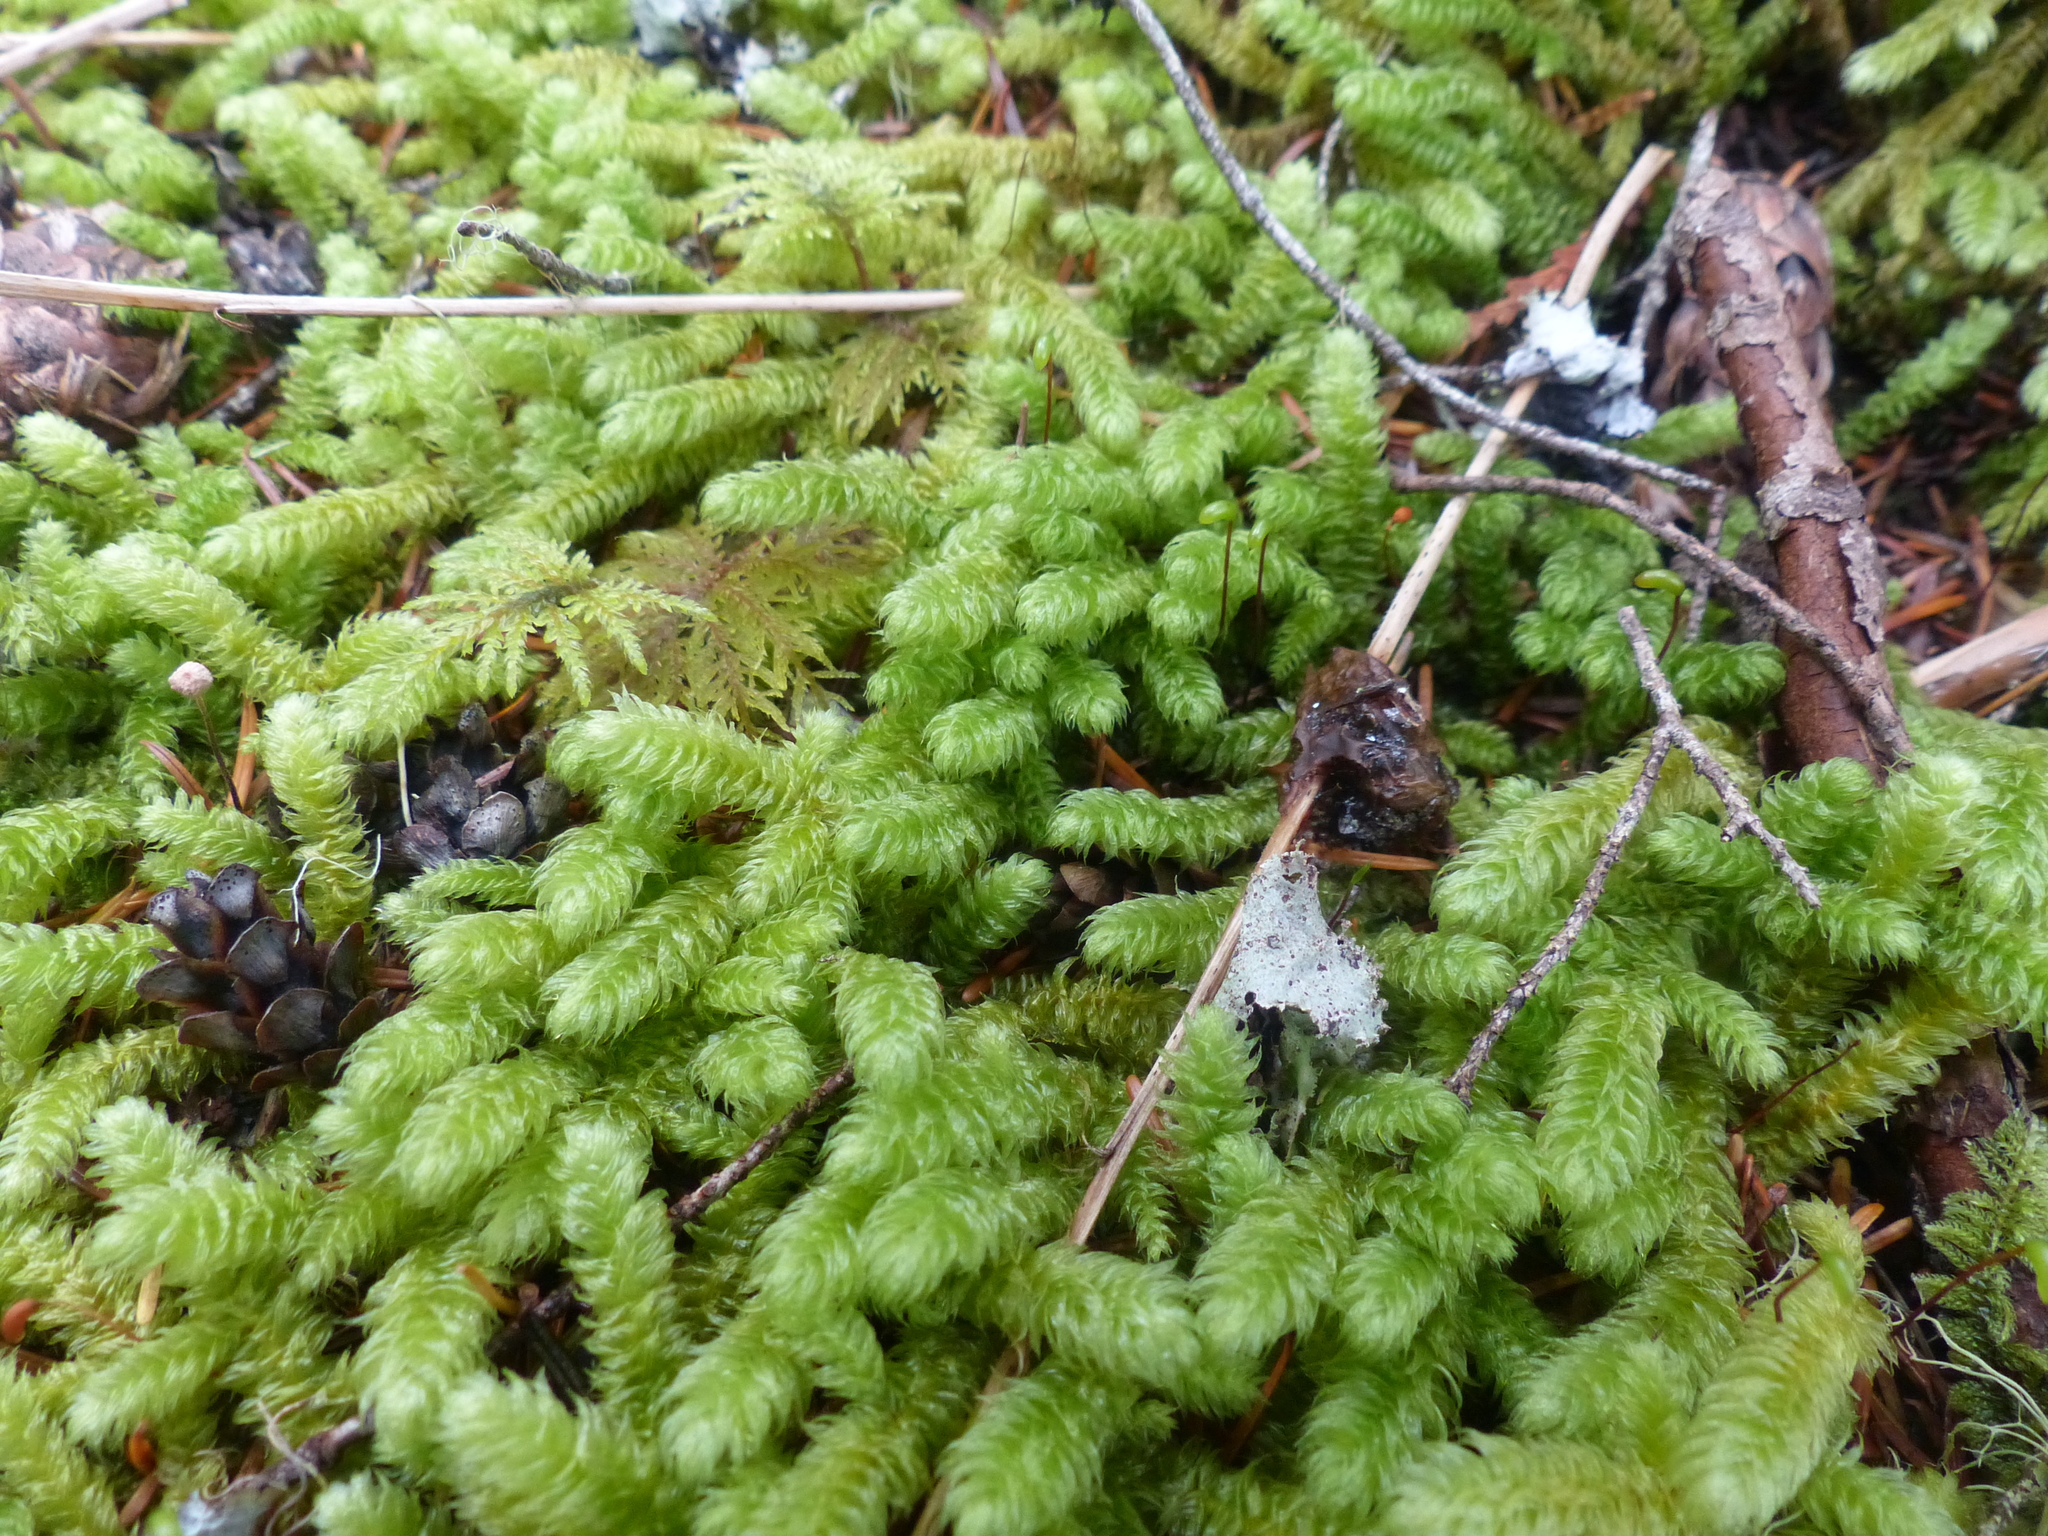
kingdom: Plantae
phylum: Bryophyta
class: Bryopsida
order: Hypnales
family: Hylocomiaceae
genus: Rhytidiopsis
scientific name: Rhytidiopsis robusta
